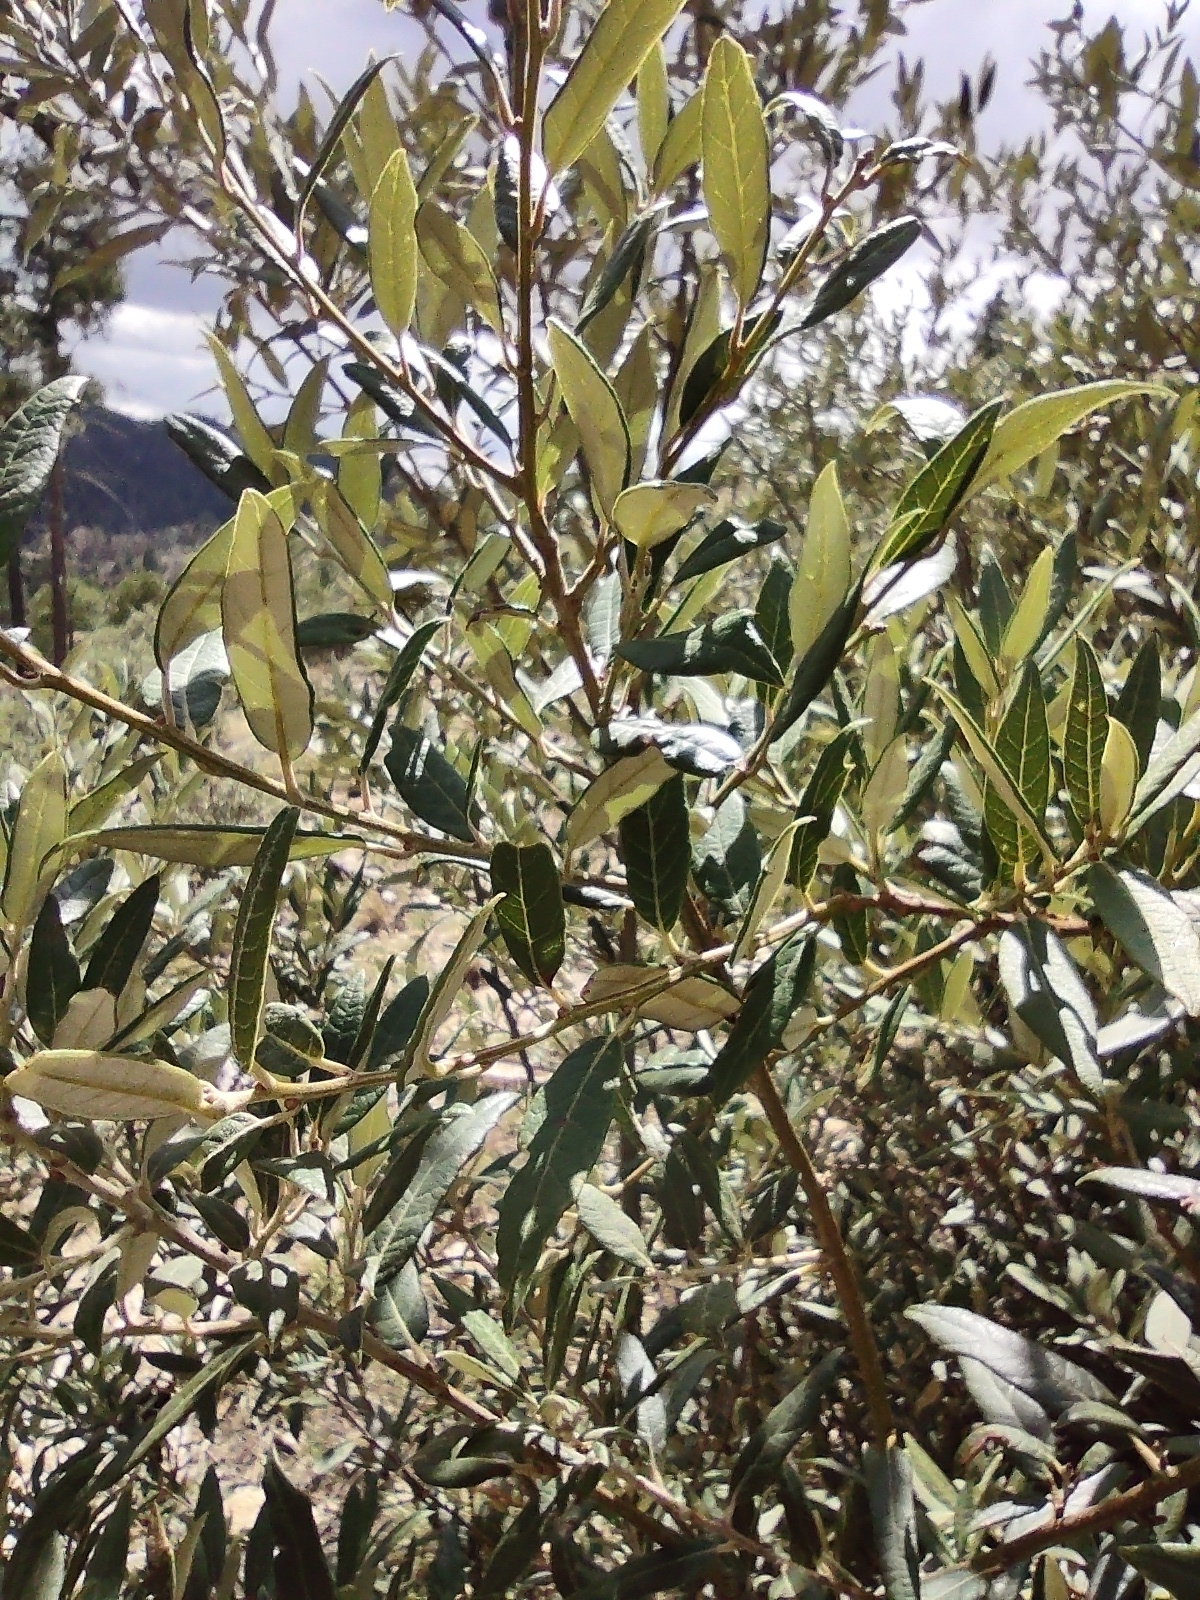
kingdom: Plantae
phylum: Tracheophyta
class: Magnoliopsida
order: Fagales
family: Fagaceae
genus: Quercus
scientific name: Quercus hypoleucoides
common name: Silverleaf oak
